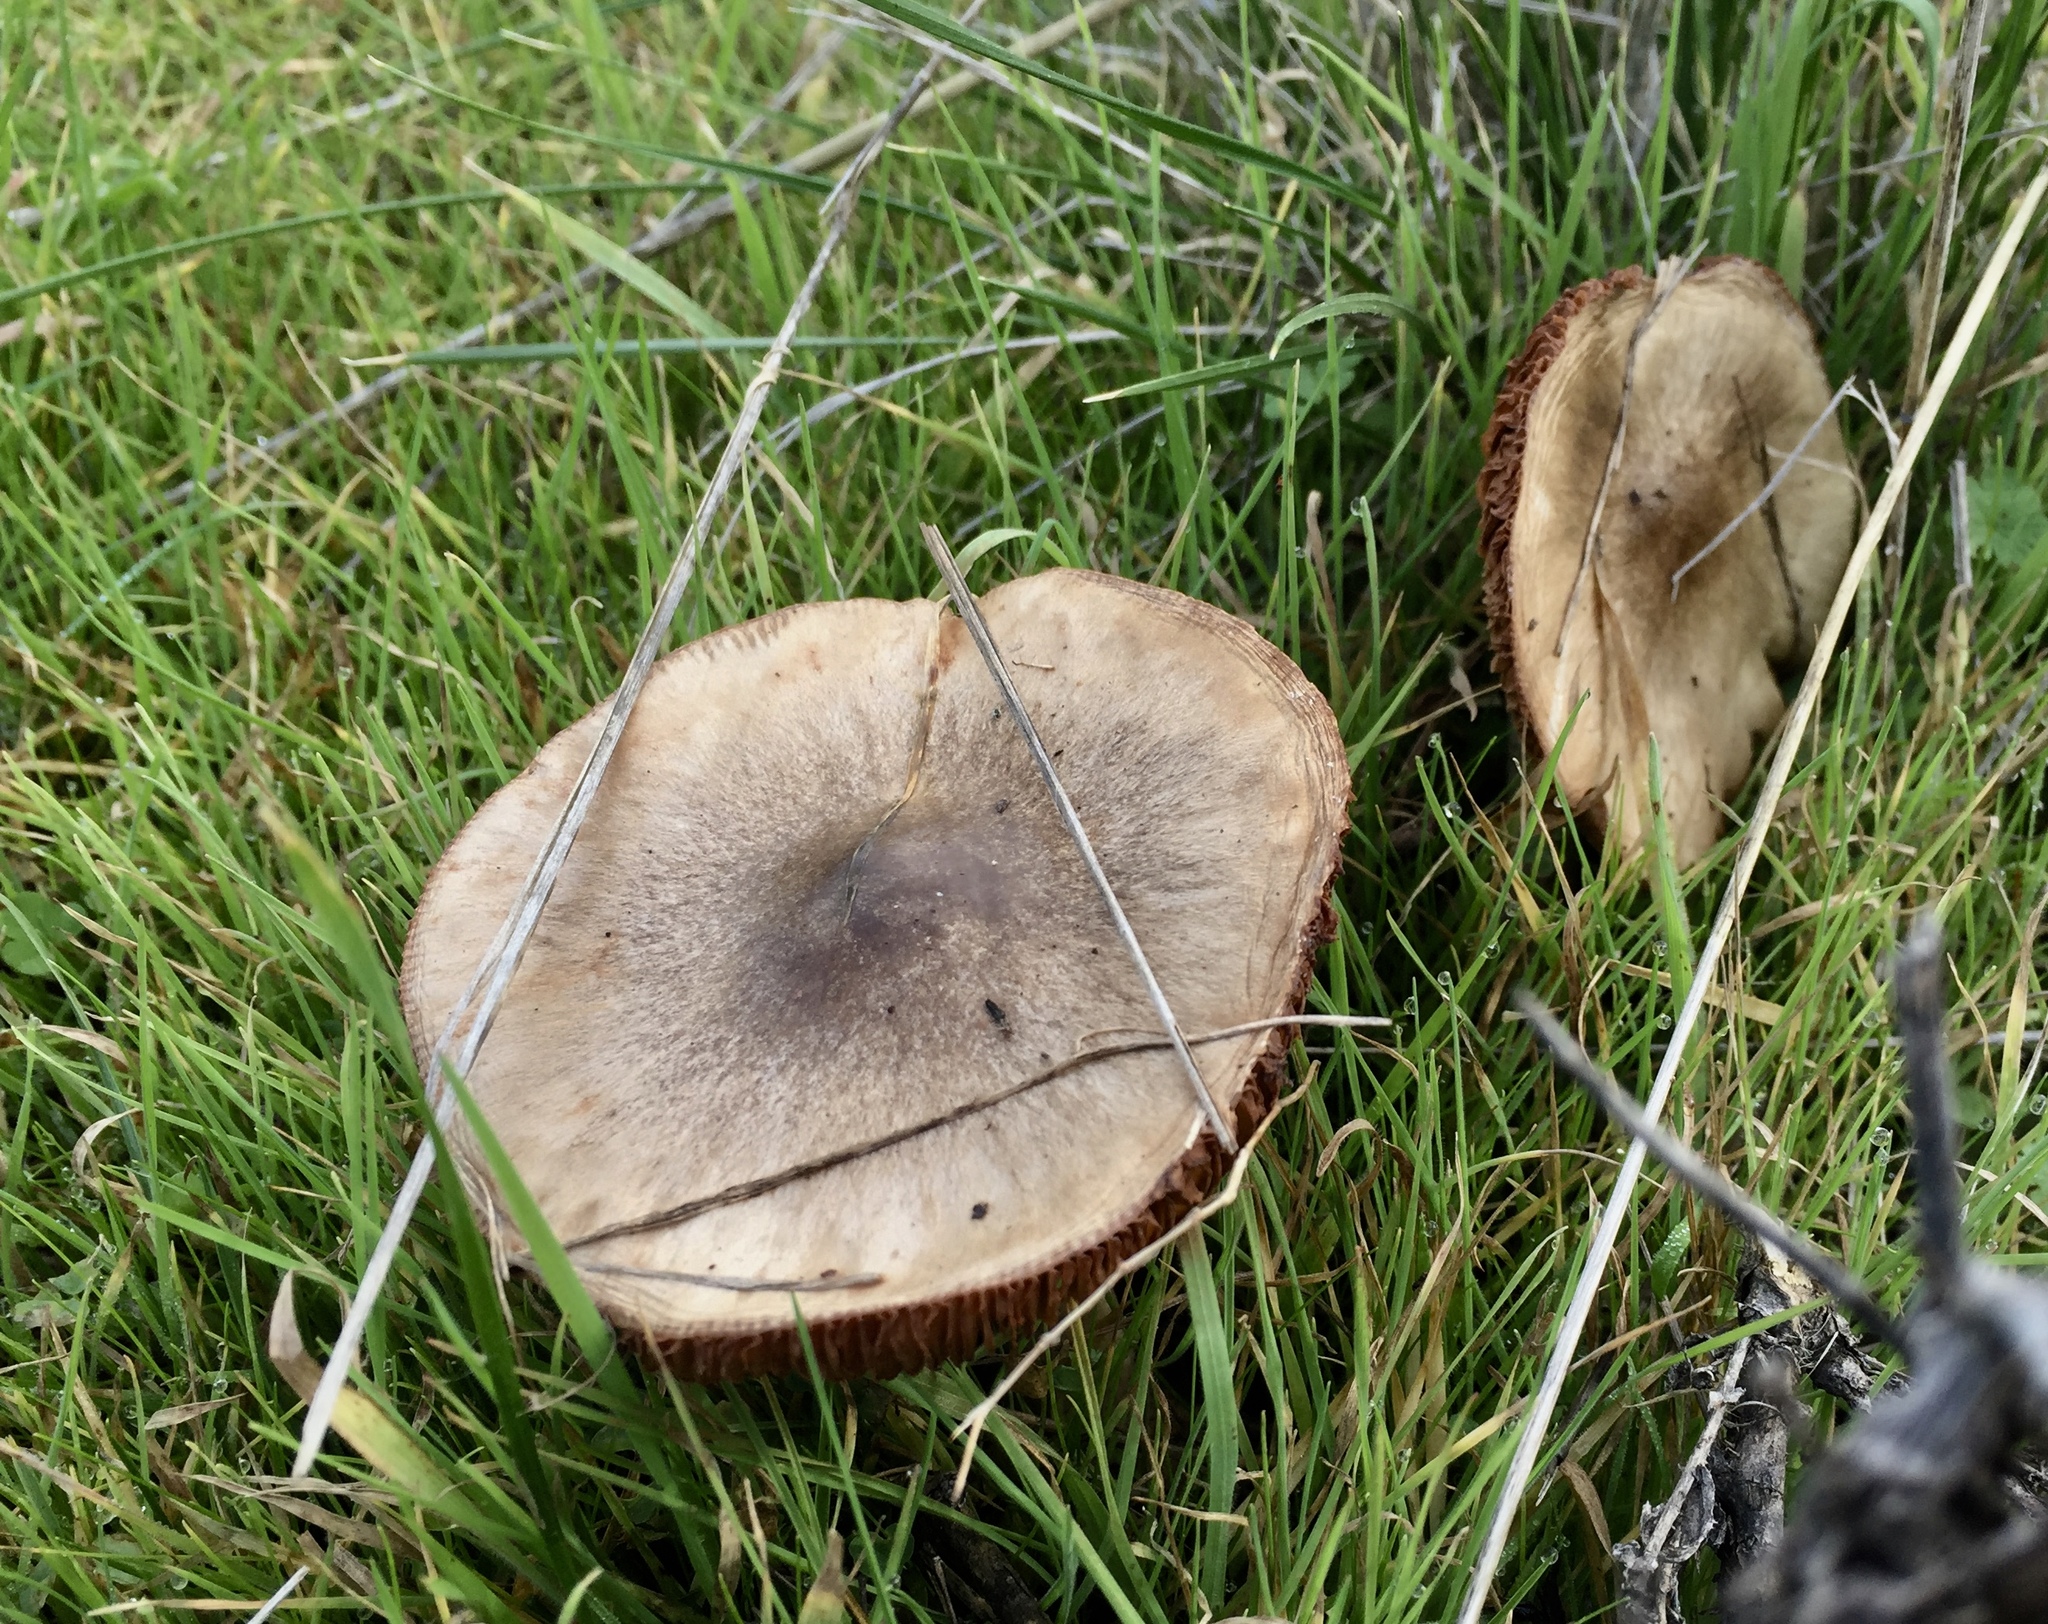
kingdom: Fungi
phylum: Basidiomycota
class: Agaricomycetes
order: Agaricales
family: Pluteaceae
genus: Volvopluteus
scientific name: Volvopluteus gloiocephalus
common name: Stubble rosegill
